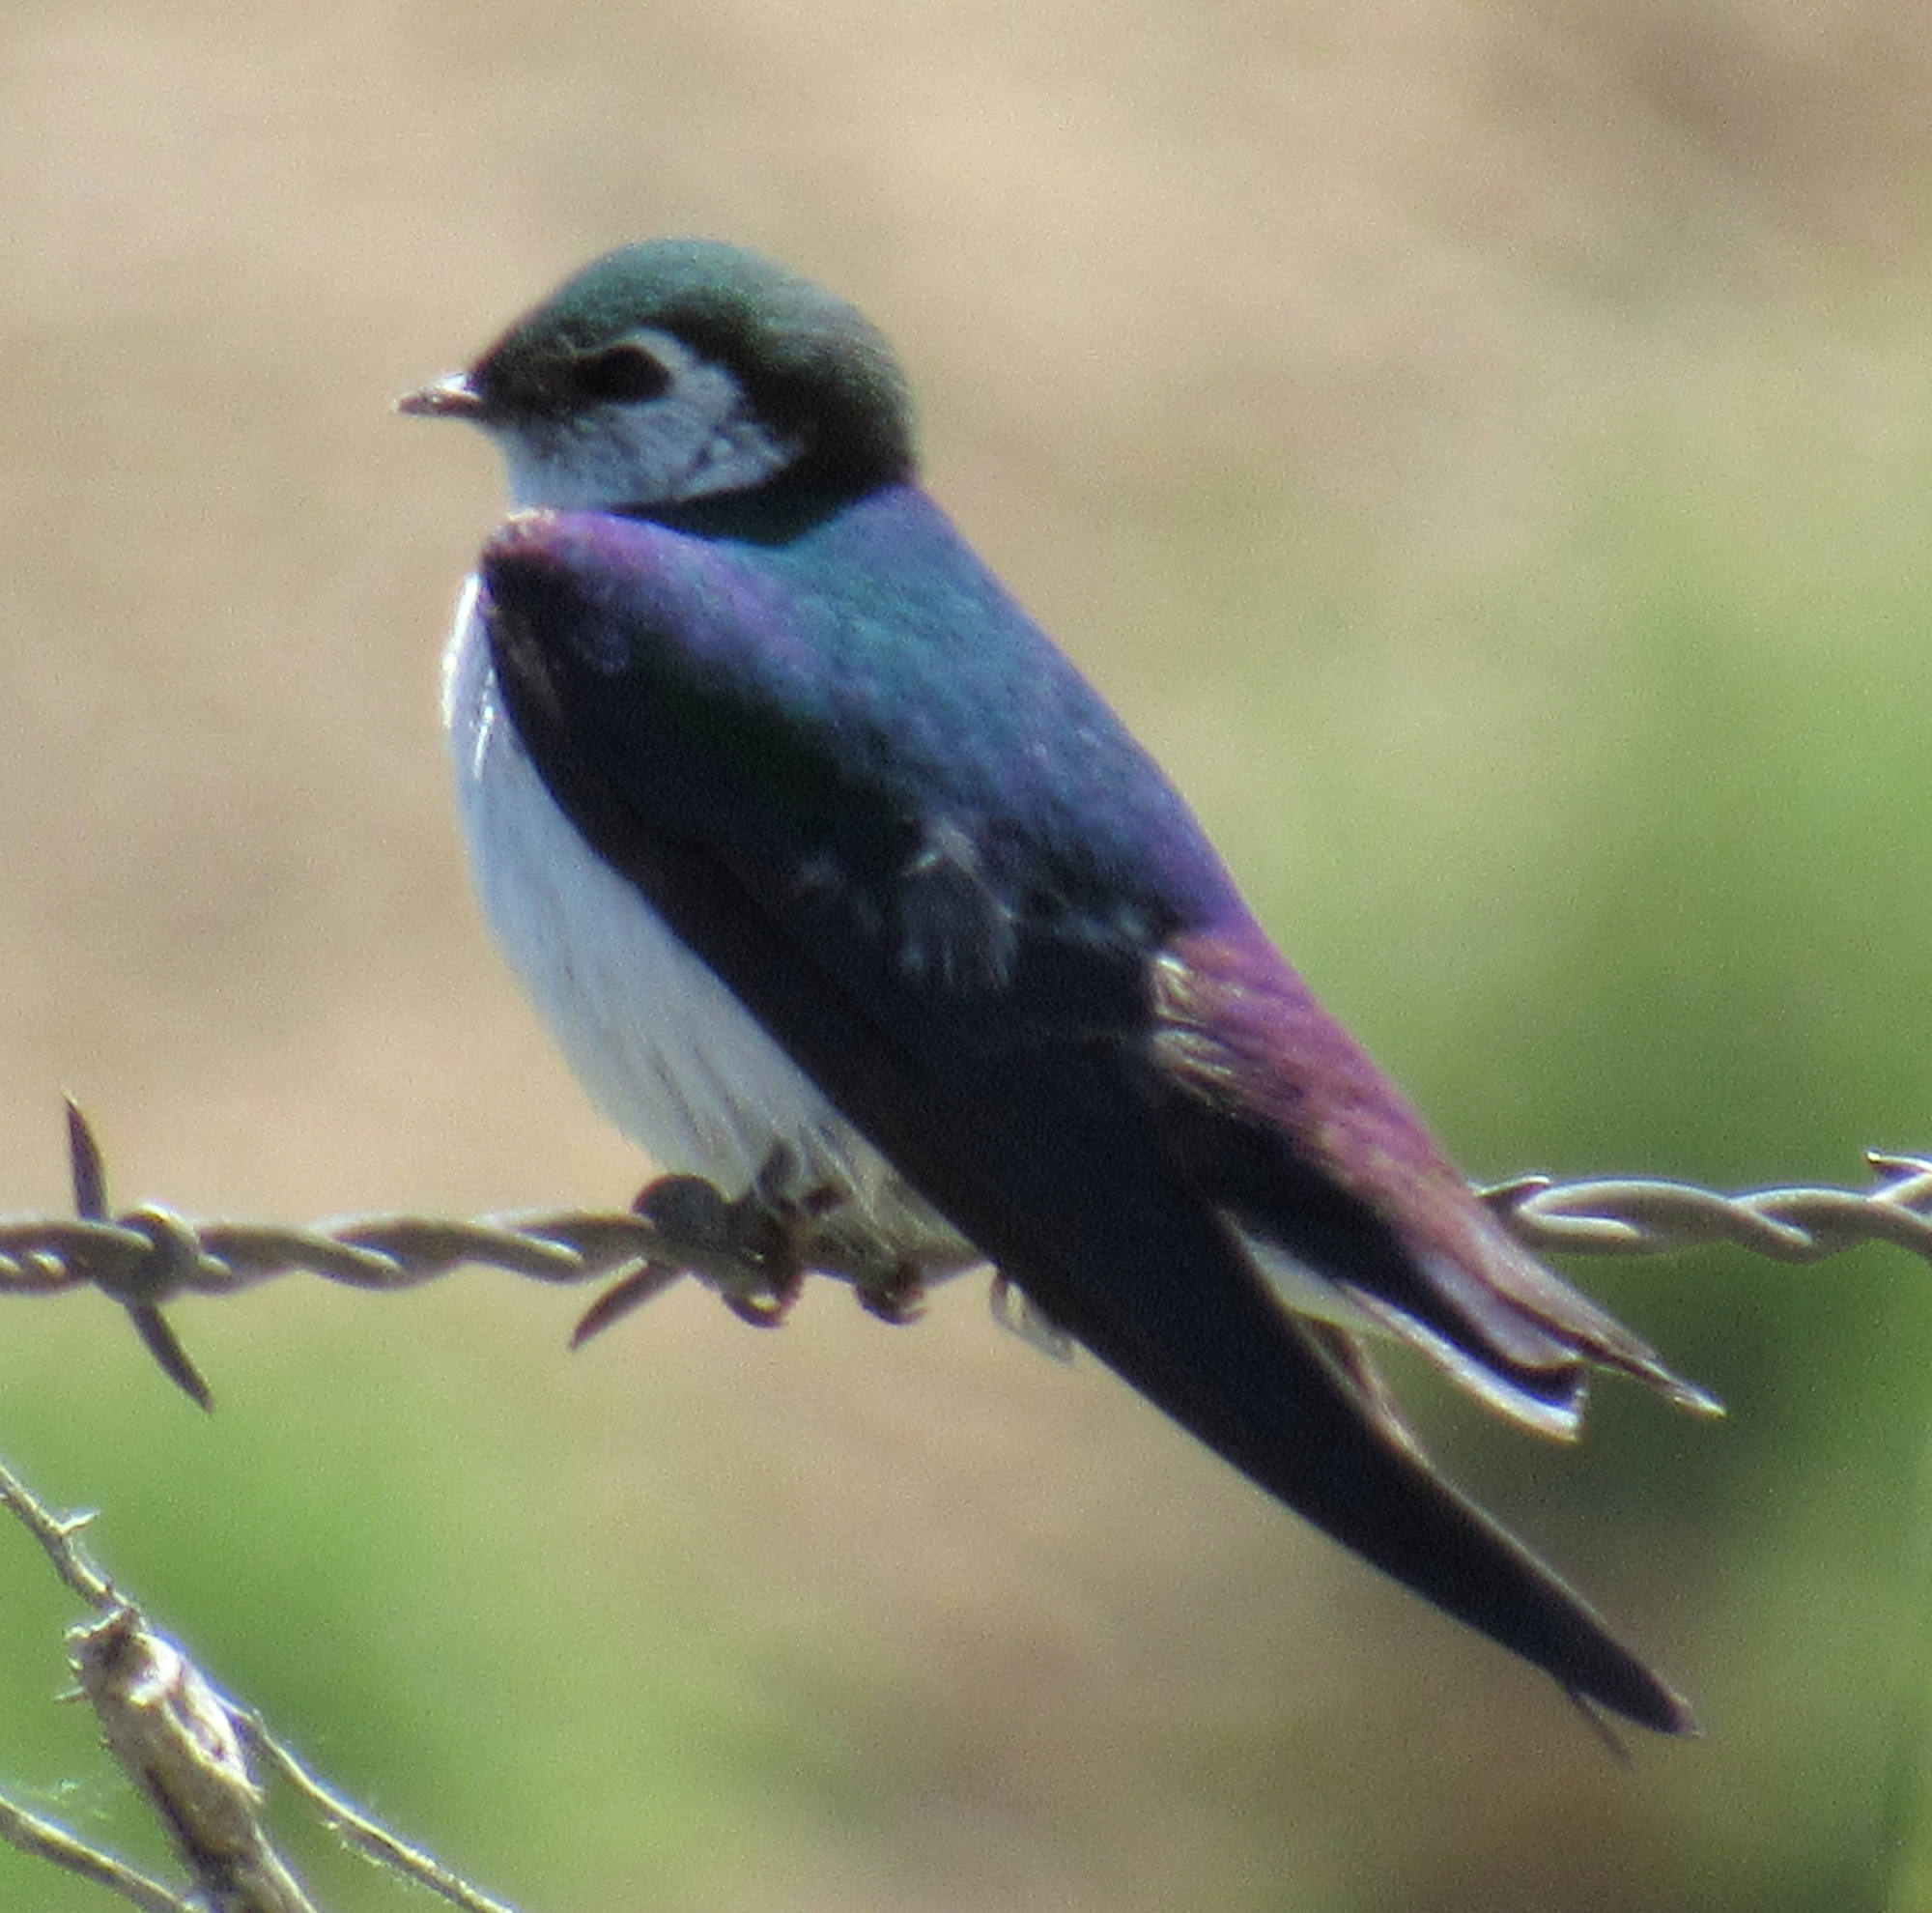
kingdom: Animalia
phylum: Chordata
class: Aves
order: Passeriformes
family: Hirundinidae
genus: Tachycineta
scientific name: Tachycineta thalassina
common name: Violet-green swallow
